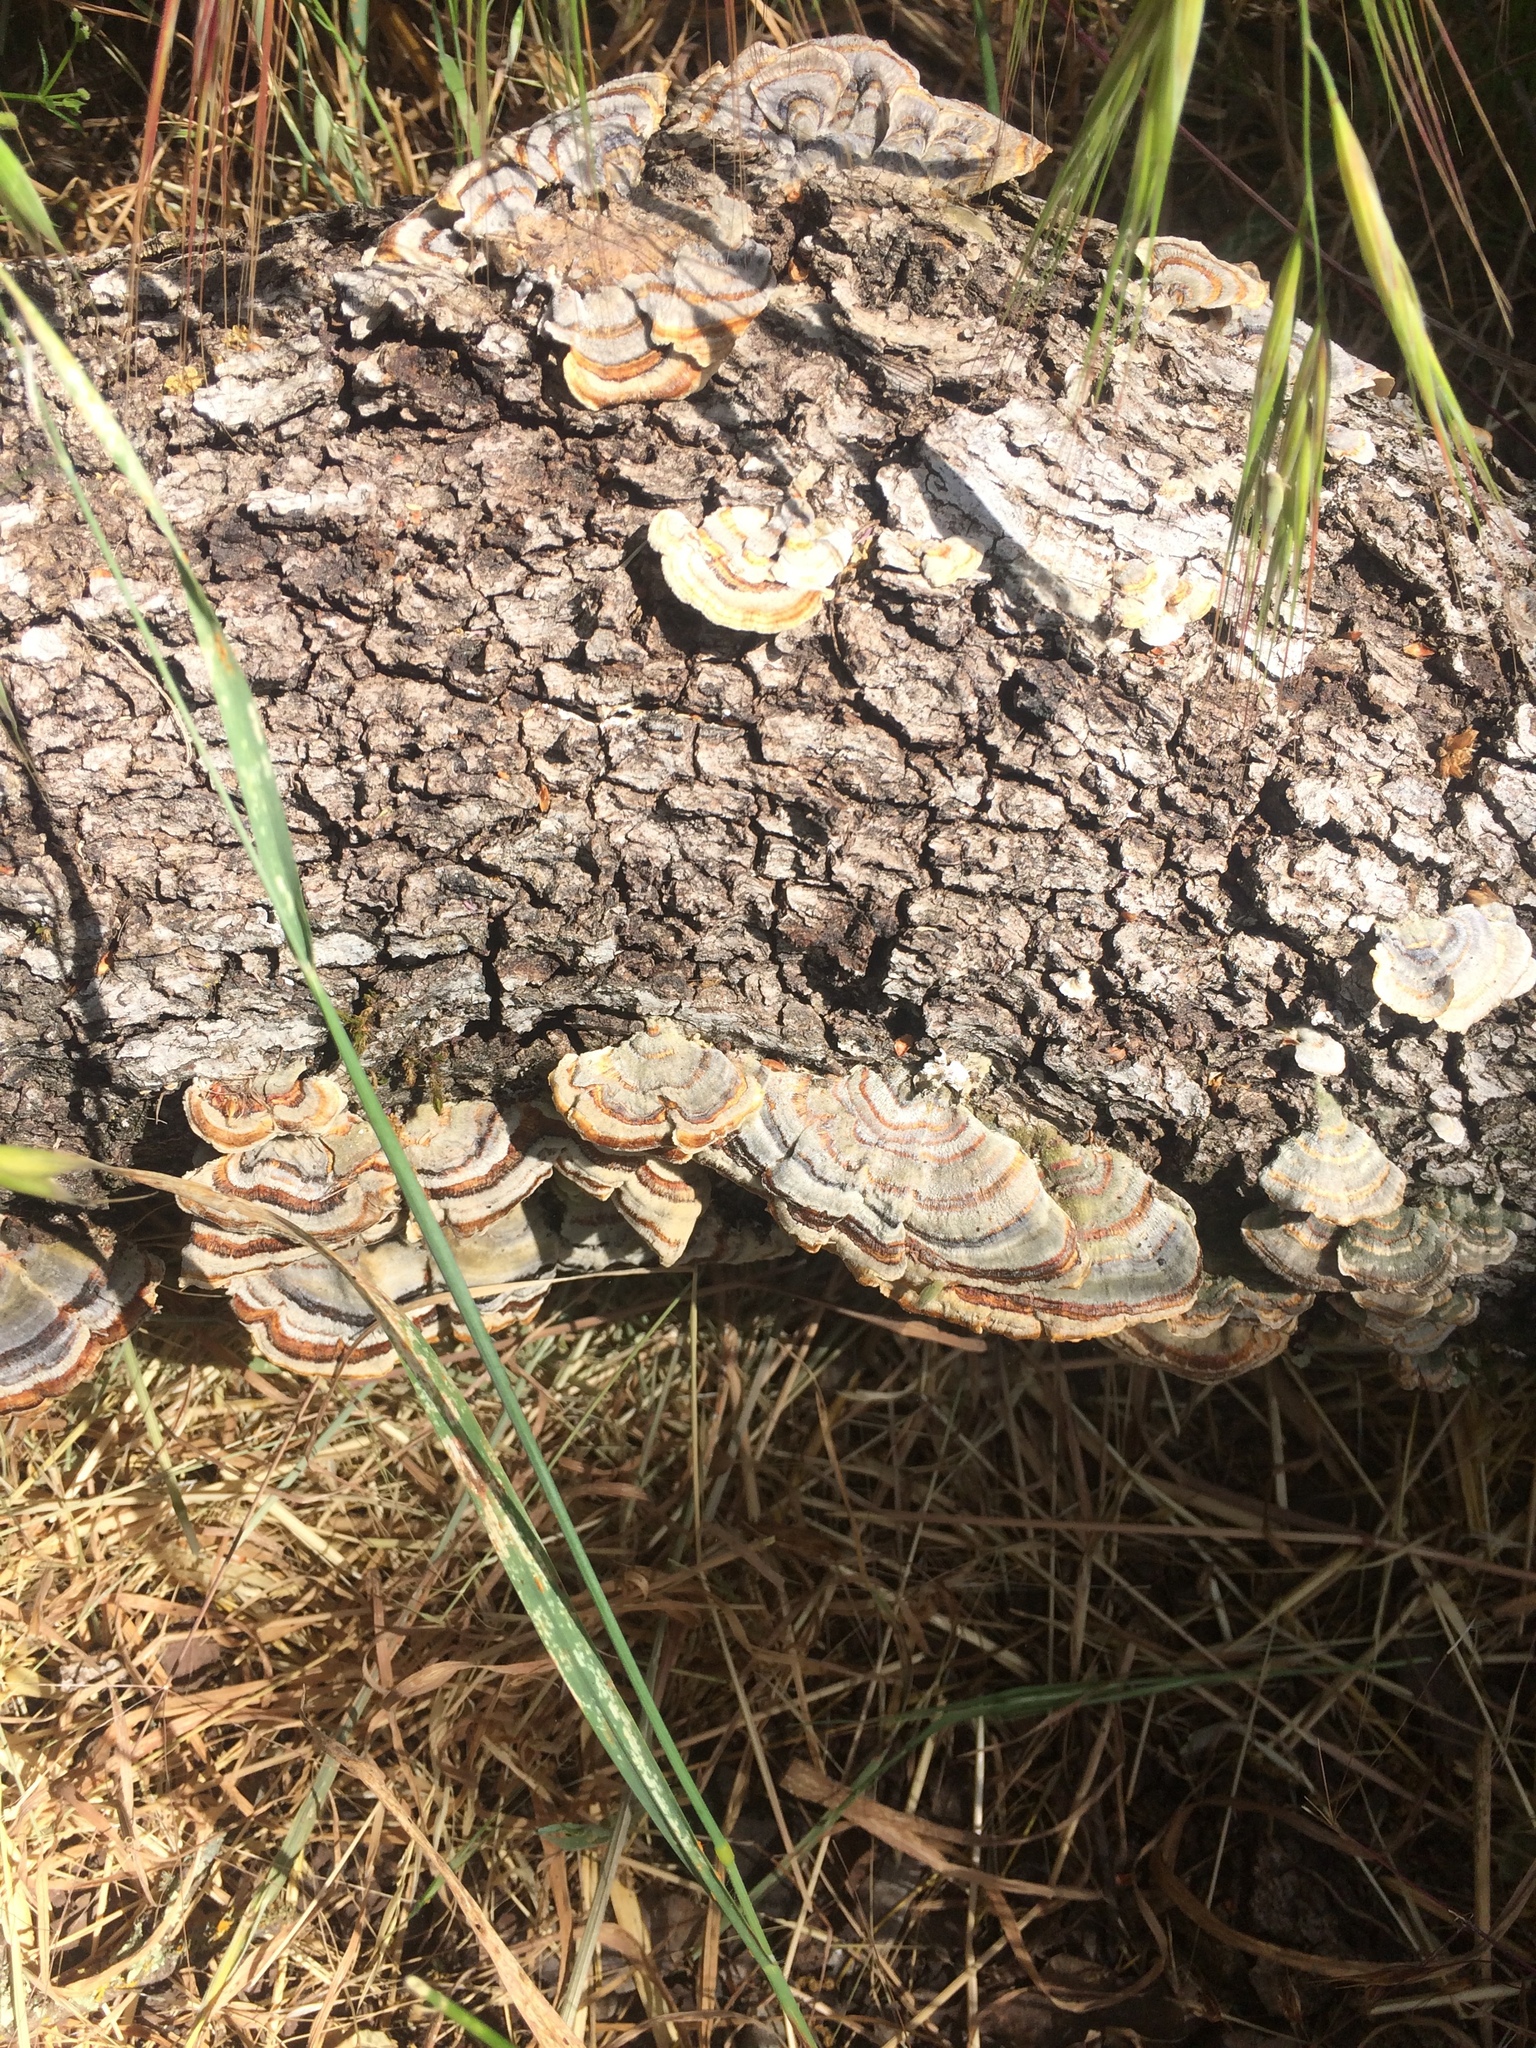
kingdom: Fungi
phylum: Basidiomycota
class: Agaricomycetes
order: Polyporales
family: Polyporaceae
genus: Trametes
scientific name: Trametes versicolor
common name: Turkeytail
